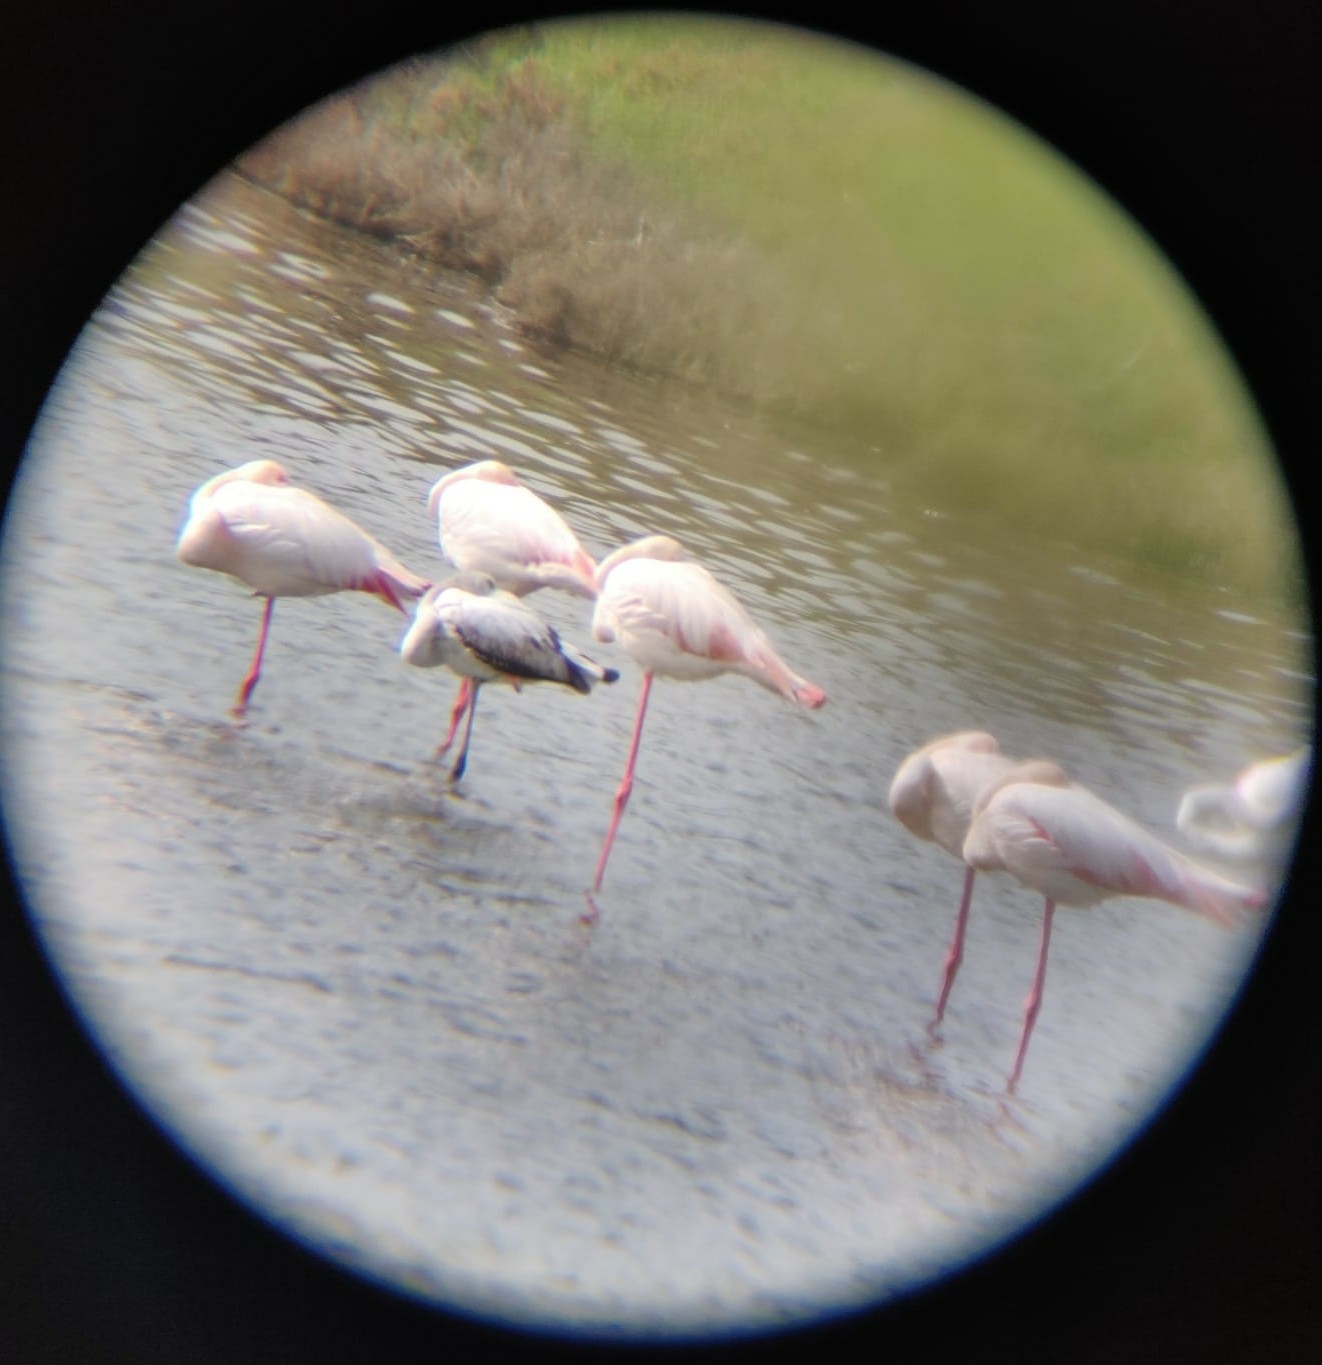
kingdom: Animalia
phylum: Chordata
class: Aves
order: Phoenicopteriformes
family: Phoenicopteridae
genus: Phoenicopterus
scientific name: Phoenicopterus roseus
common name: Greater flamingo
